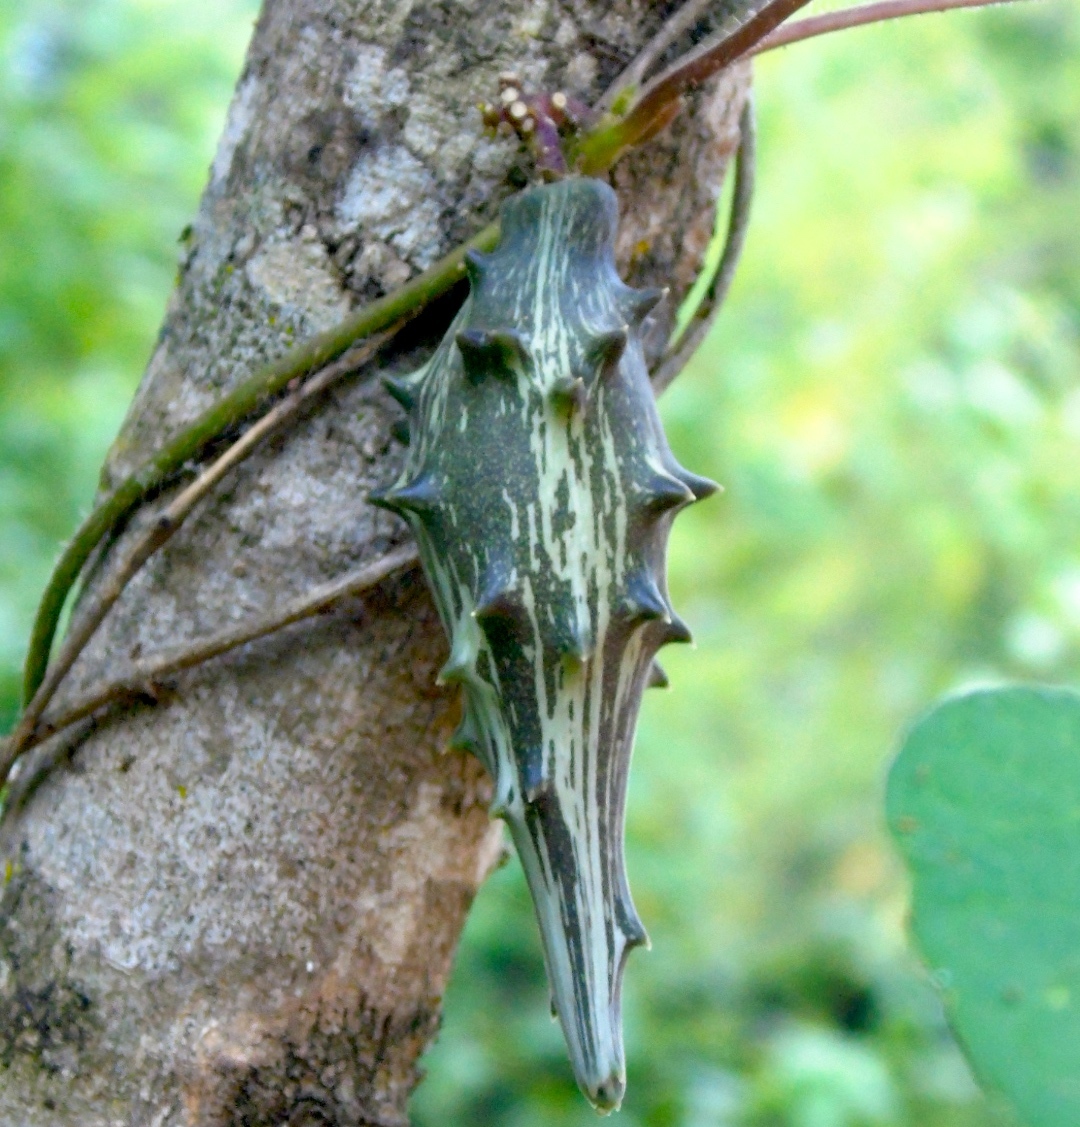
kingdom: Plantae
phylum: Tracheophyta
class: Magnoliopsida
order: Gentianales
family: Apocynaceae
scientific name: Apocynaceae
